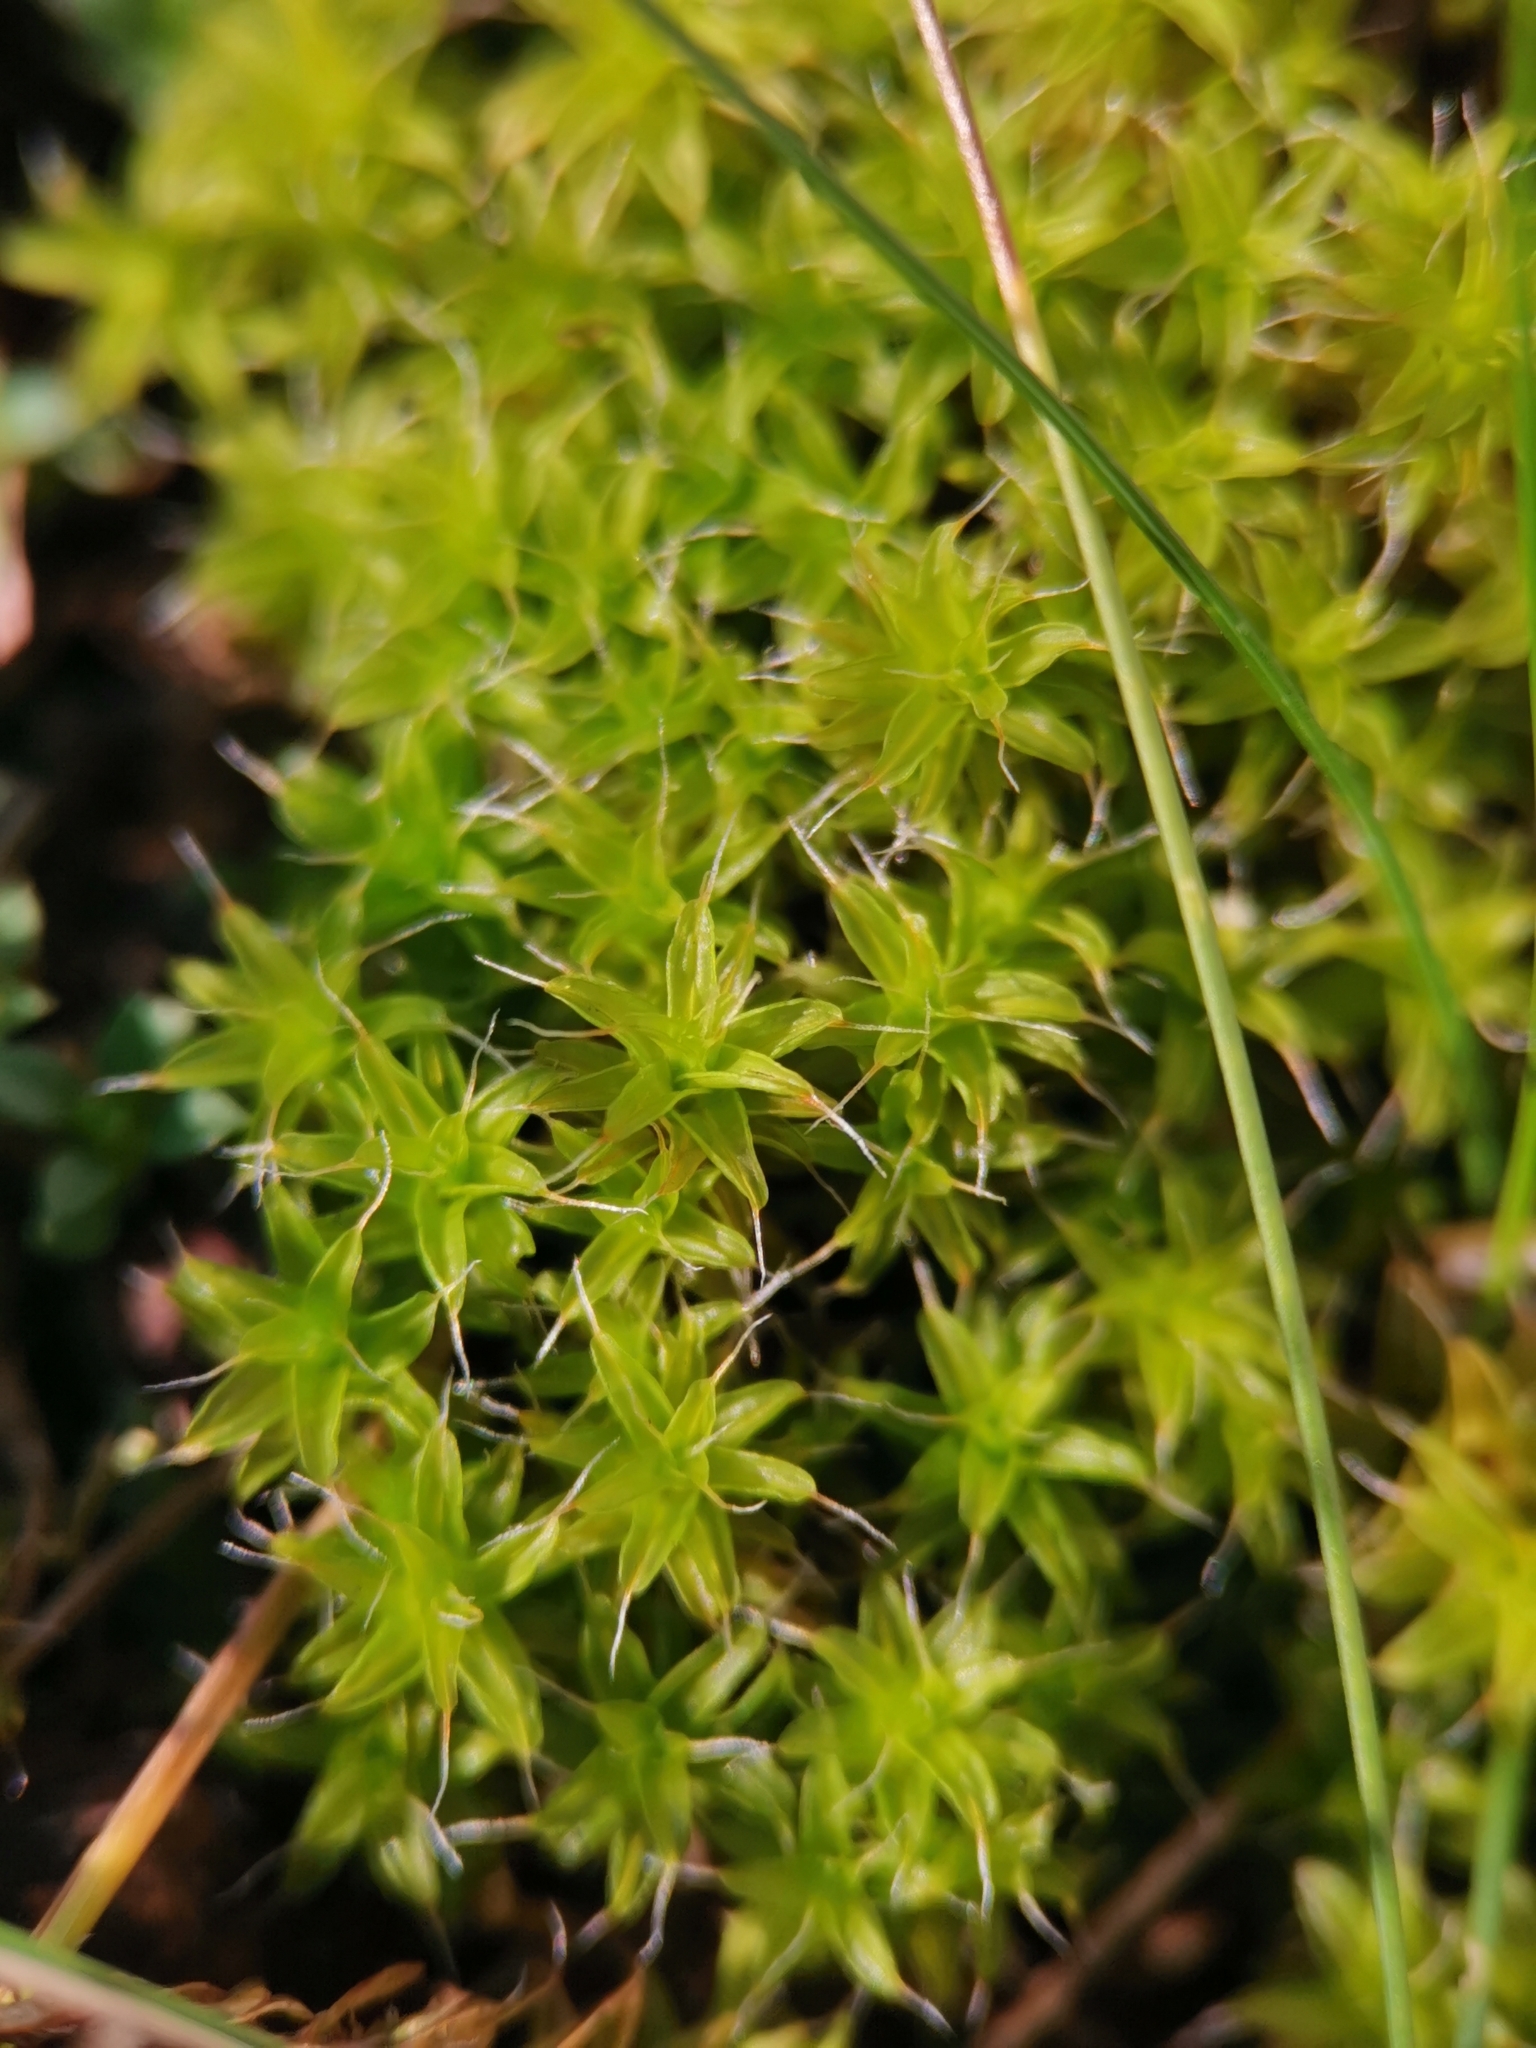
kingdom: Plantae
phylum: Bryophyta
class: Bryopsida
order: Pottiales
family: Pottiaceae
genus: Syntrichia
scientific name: Syntrichia ruralis
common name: Sidewalk screw moss
